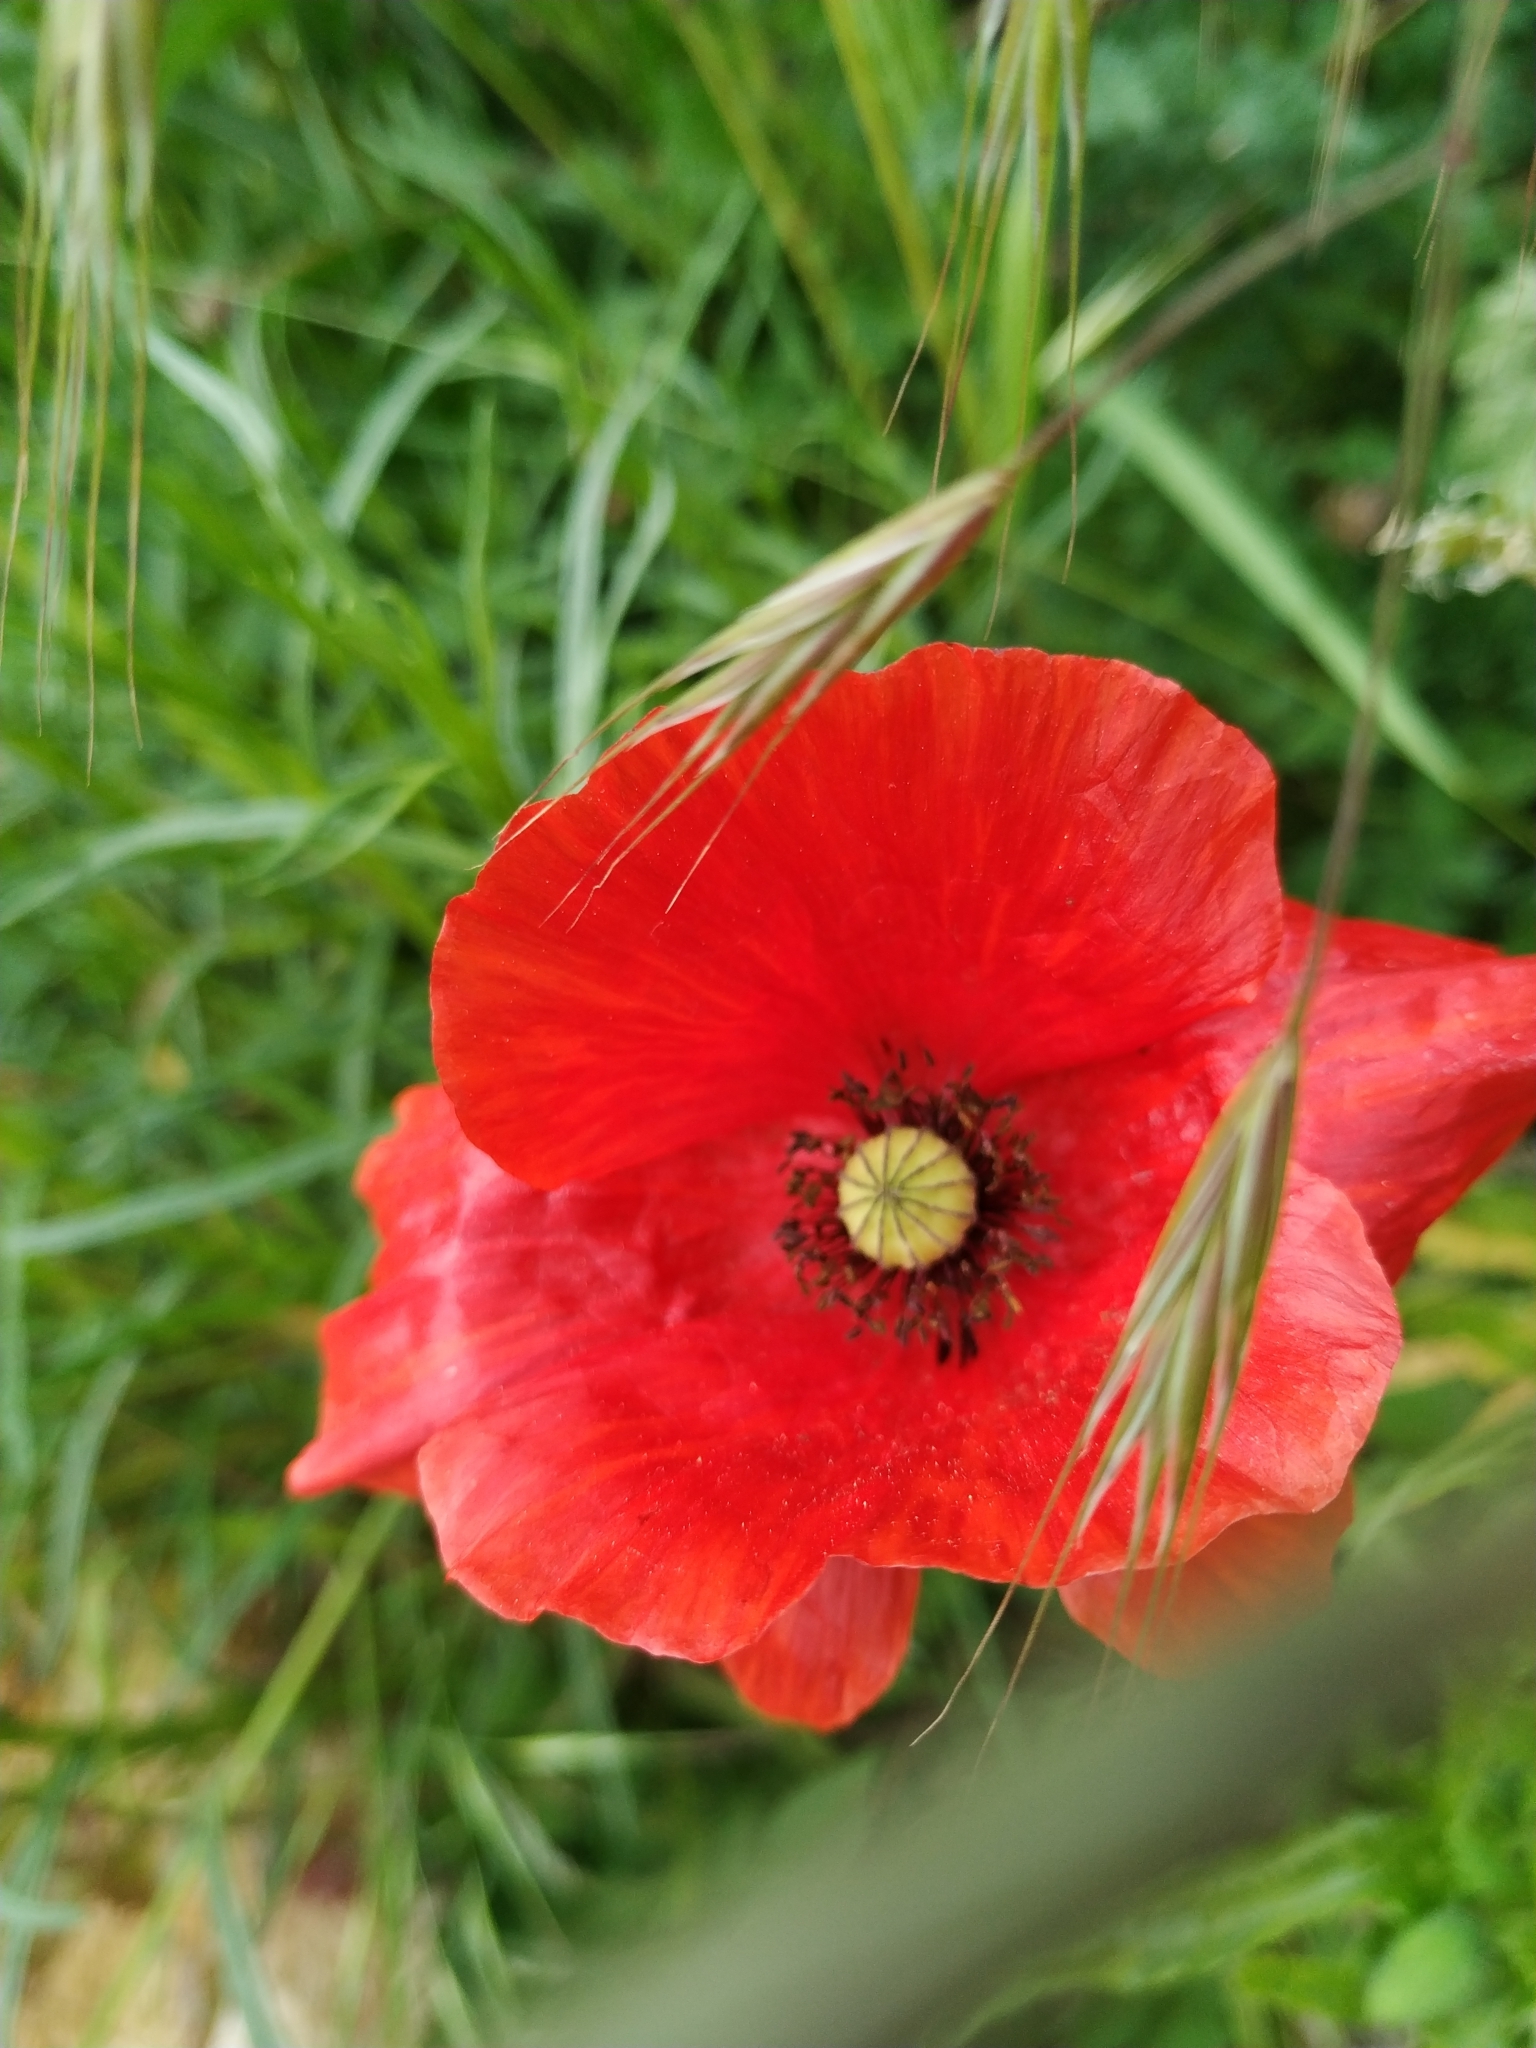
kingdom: Plantae
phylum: Tracheophyta
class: Magnoliopsida
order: Ranunculales
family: Papaveraceae
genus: Papaver
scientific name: Papaver rhoeas
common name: Corn poppy
